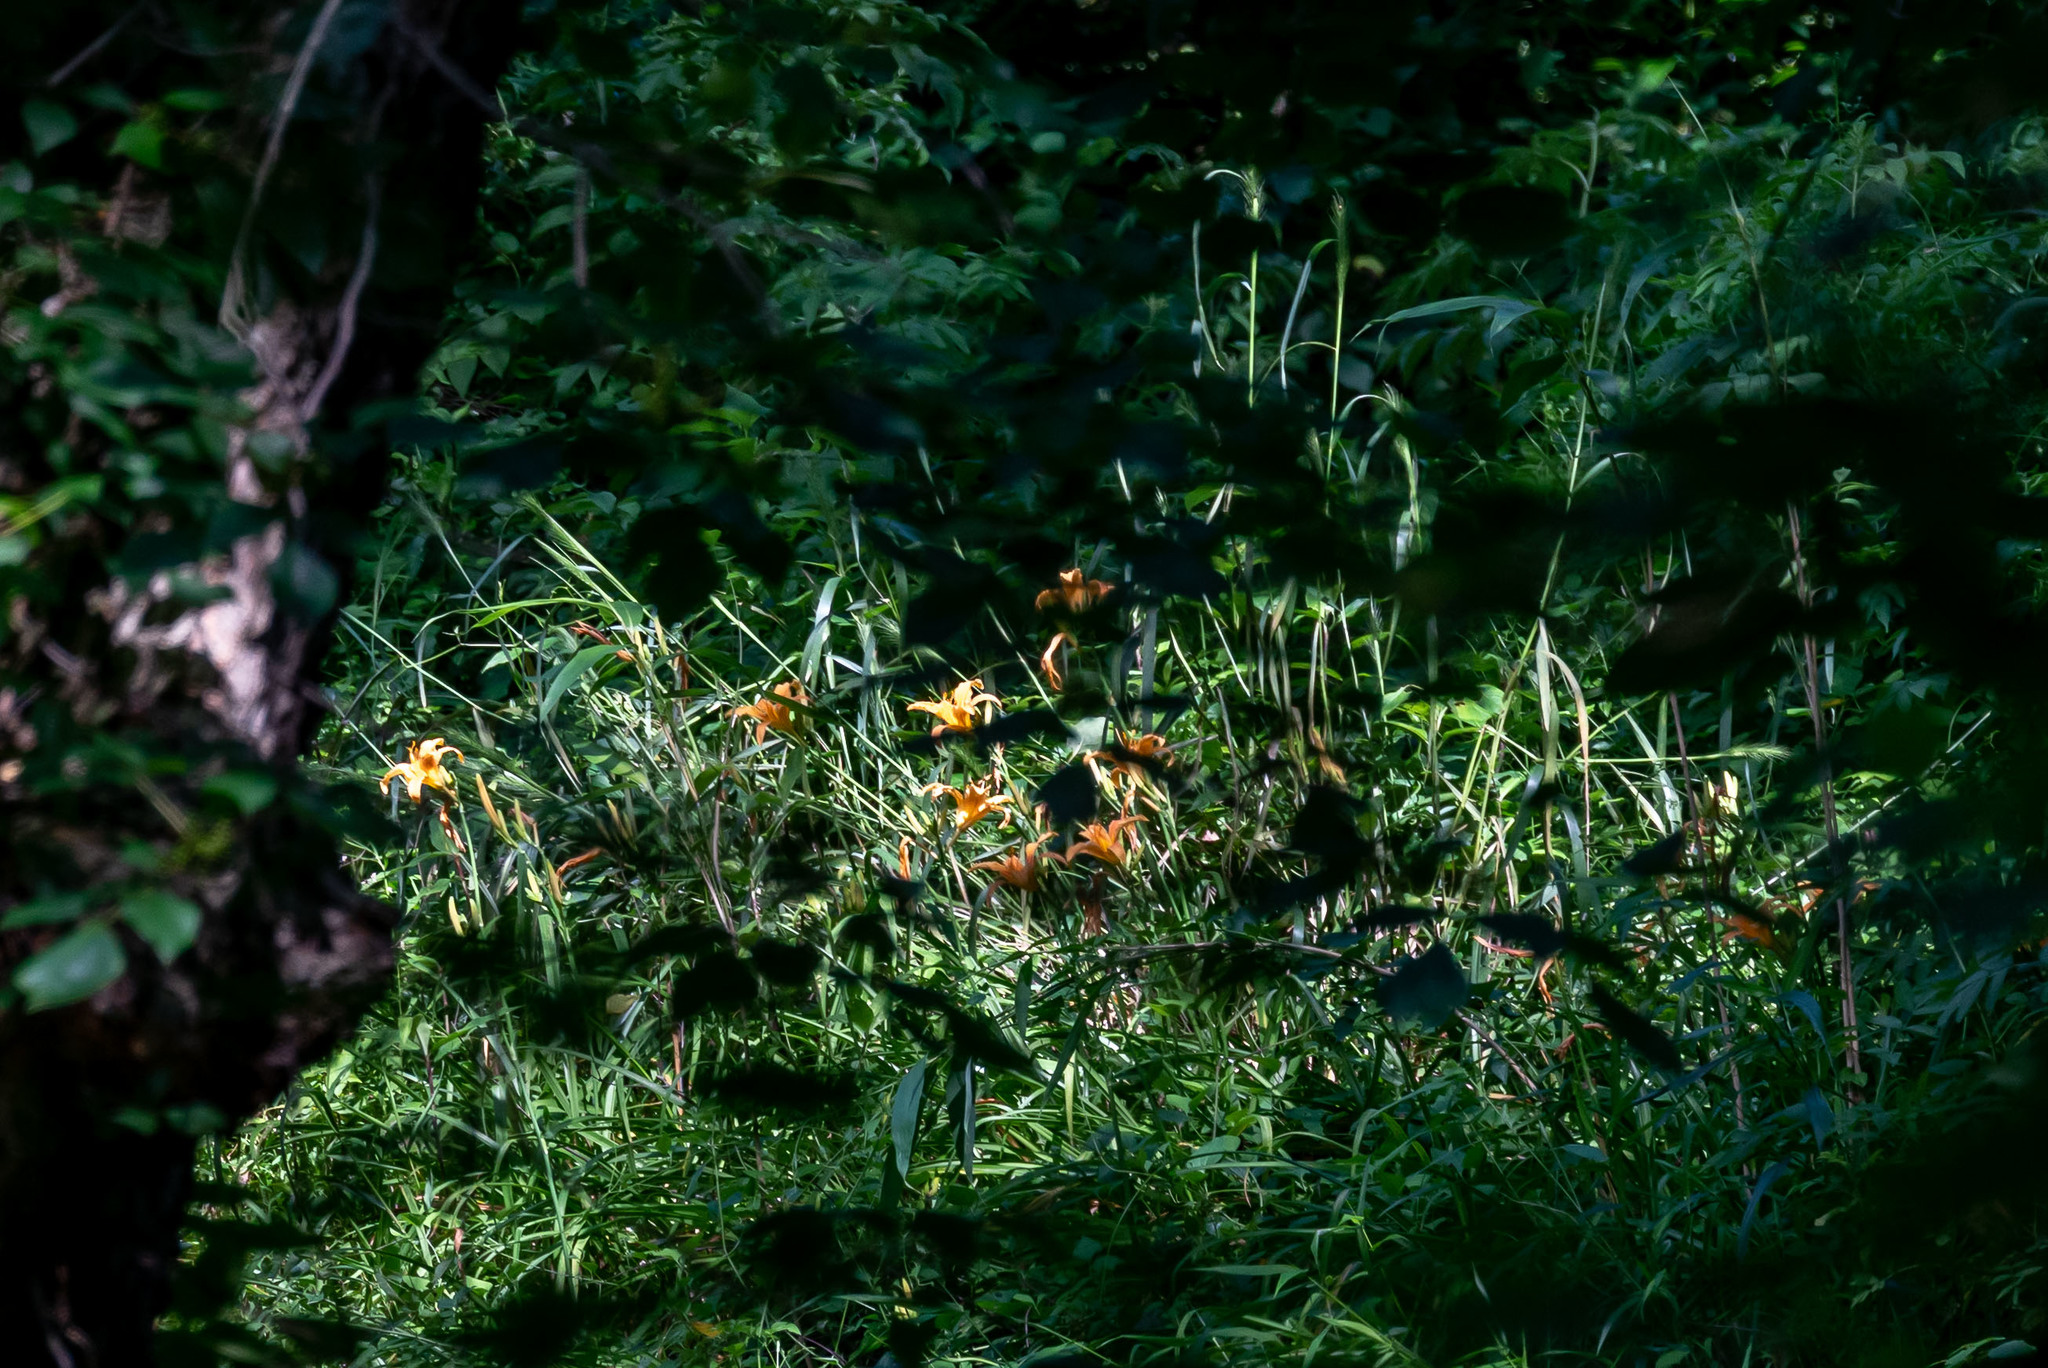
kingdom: Plantae
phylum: Tracheophyta
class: Liliopsida
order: Asparagales
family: Asphodelaceae
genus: Hemerocallis
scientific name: Hemerocallis fulva
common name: Orange day-lily
